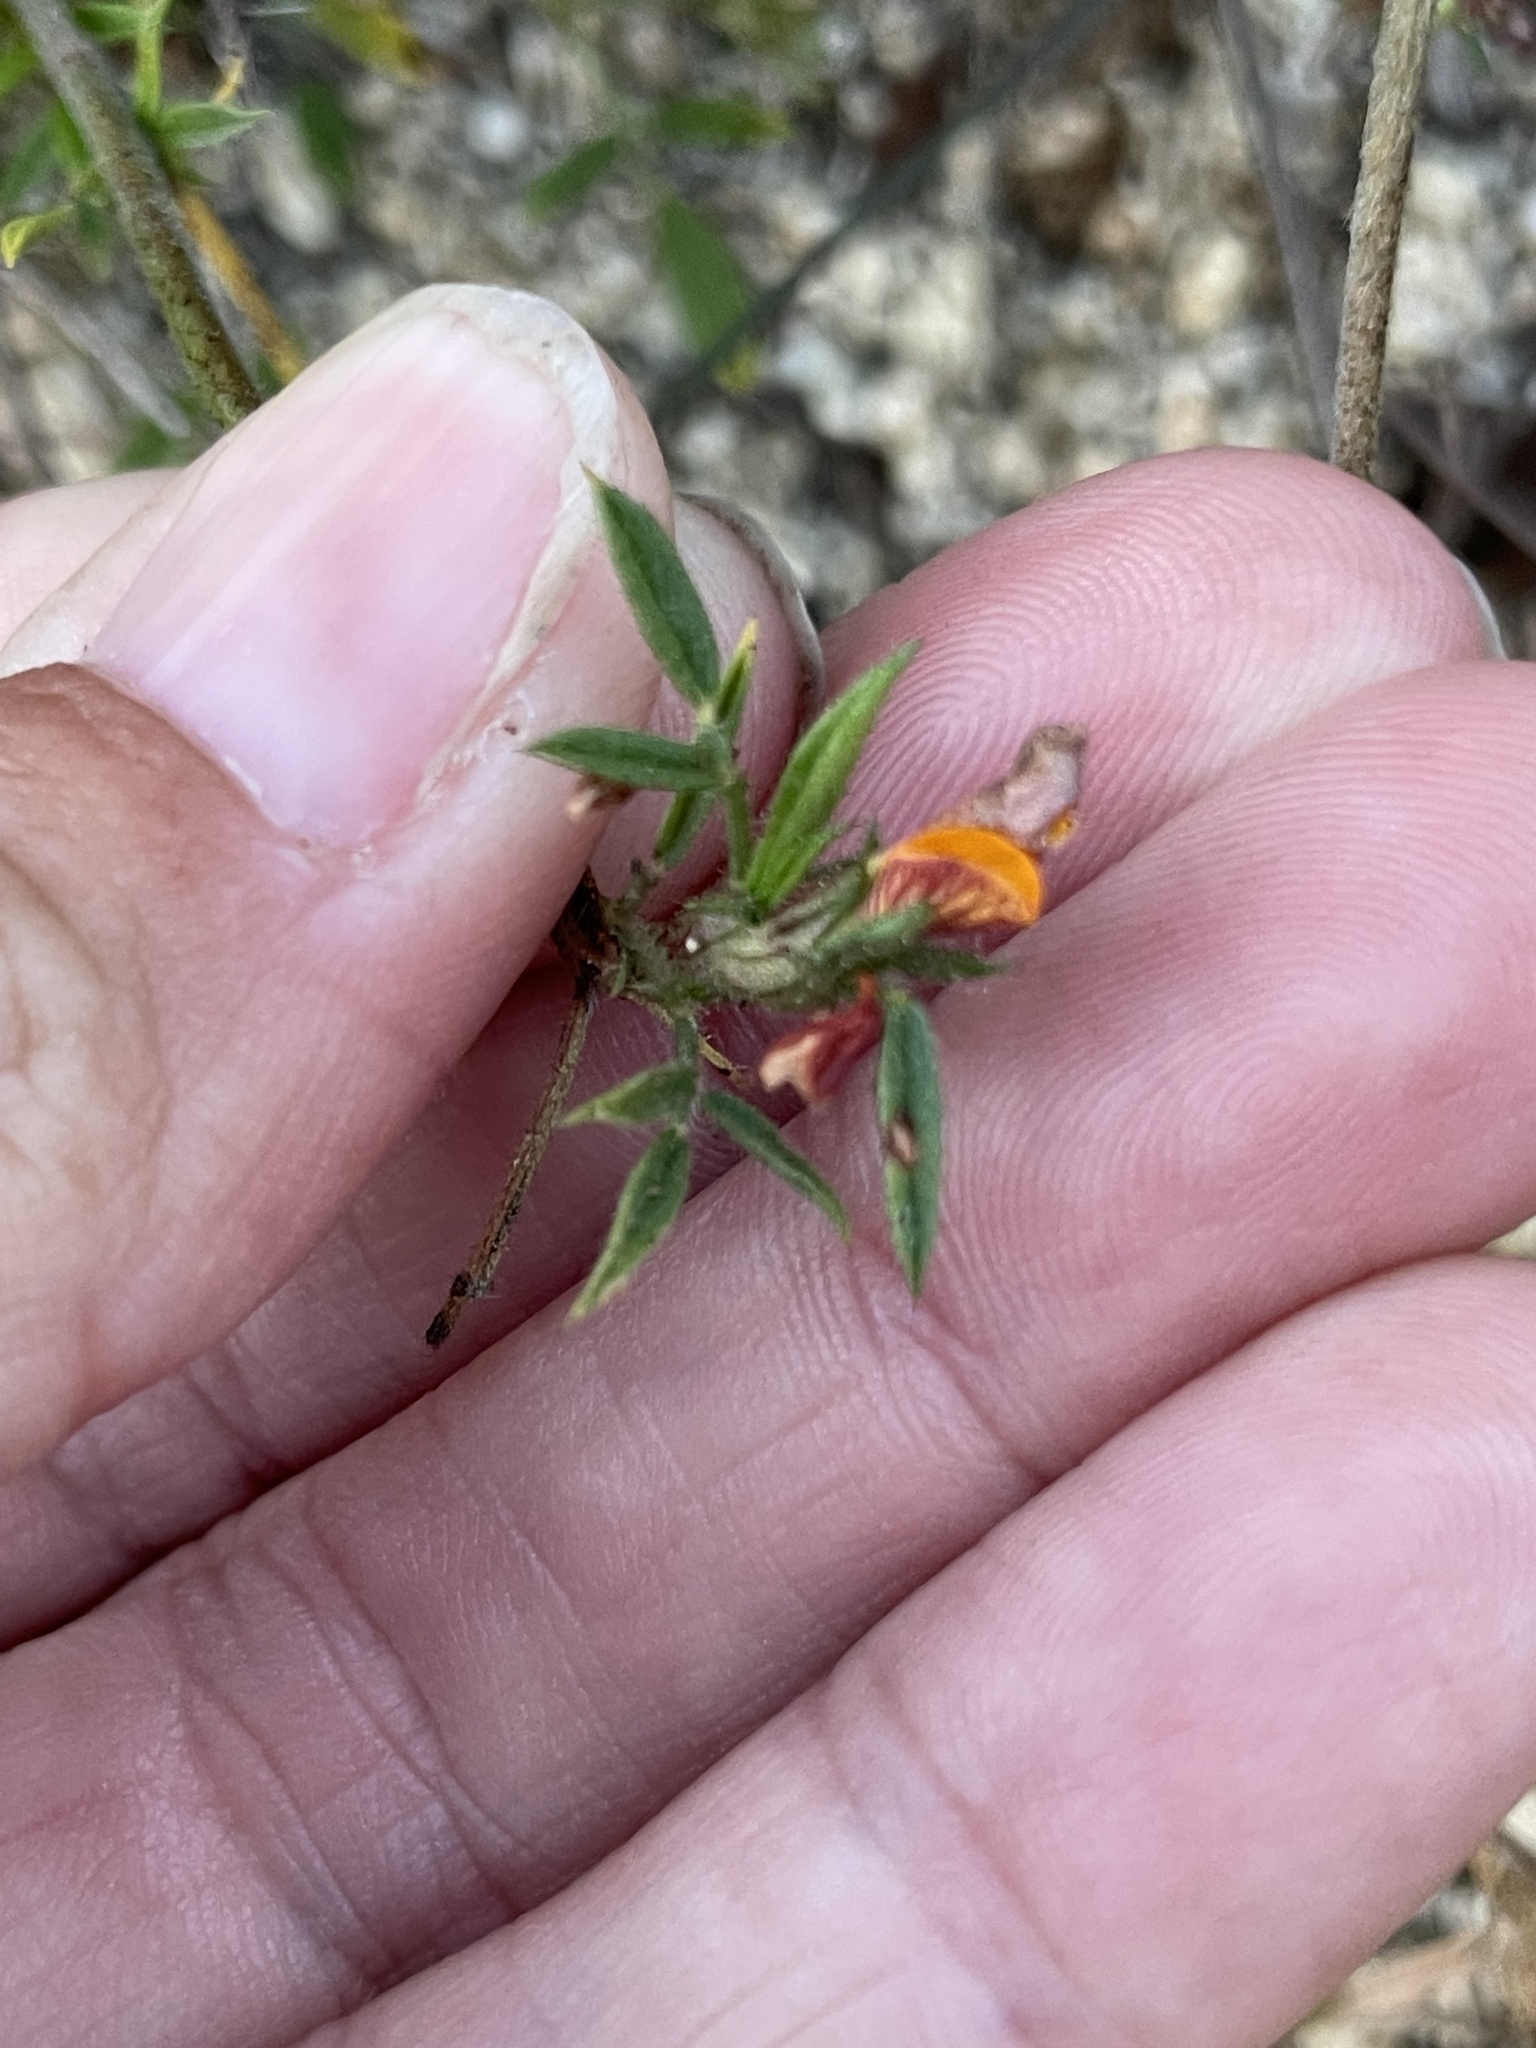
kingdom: Plantae
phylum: Tracheophyta
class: Magnoliopsida
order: Fabales
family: Fabaceae
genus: Stylosanthes
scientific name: Stylosanthes viscosa
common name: Viscid pencil-flower
